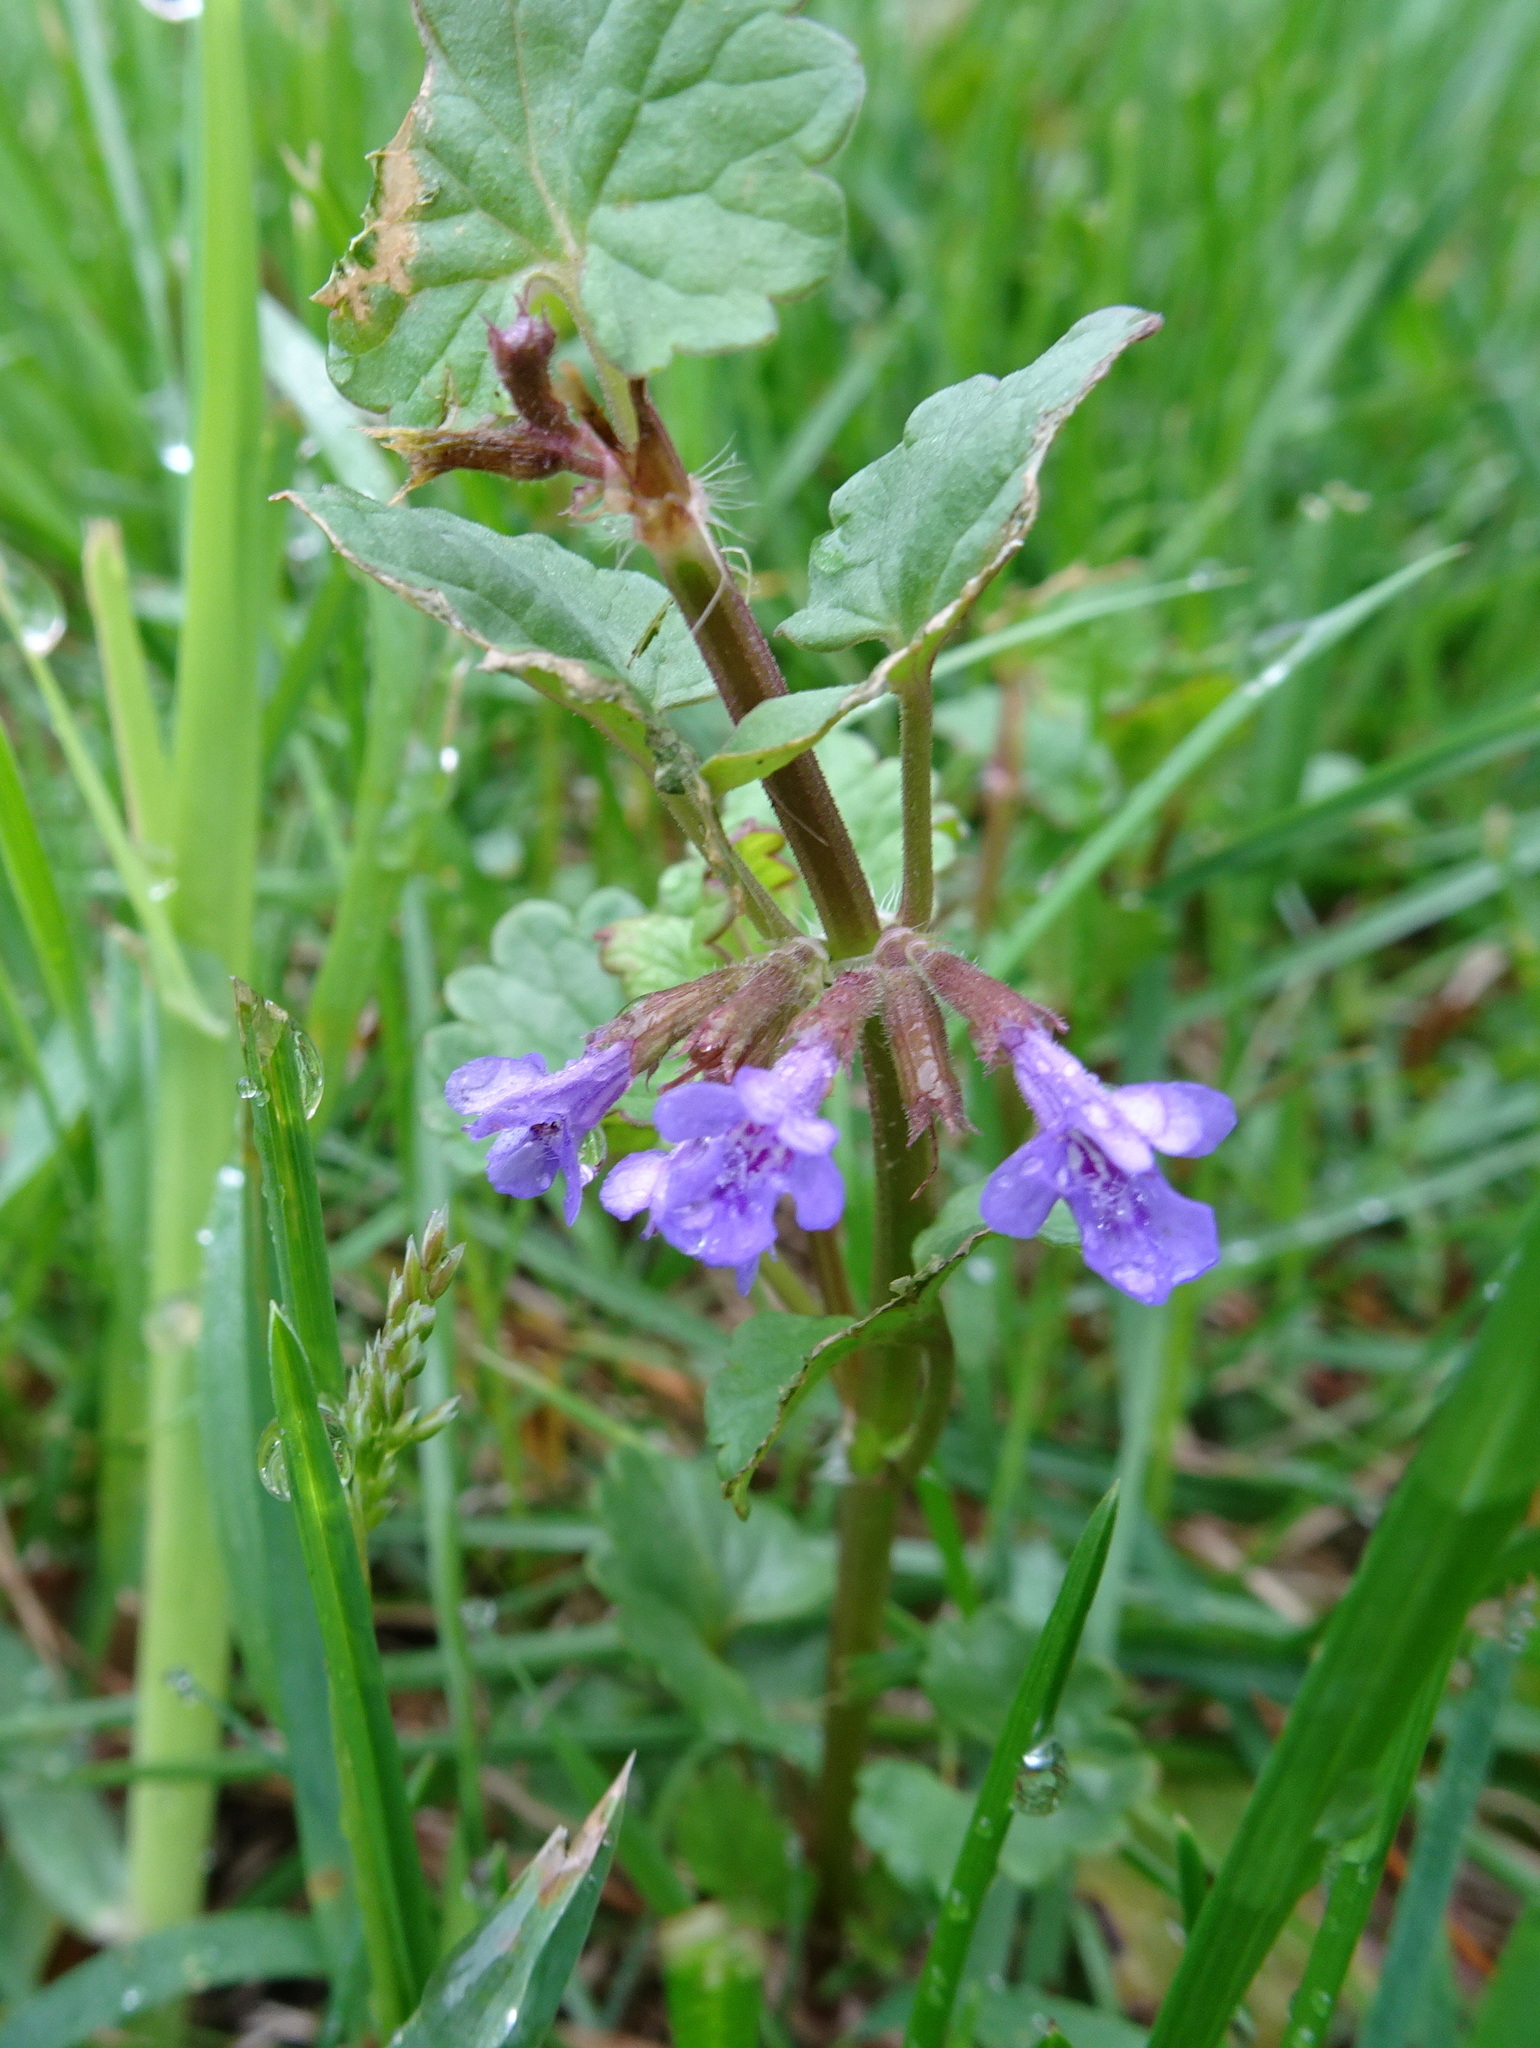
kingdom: Plantae
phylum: Tracheophyta
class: Magnoliopsida
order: Lamiales
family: Lamiaceae
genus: Glechoma
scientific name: Glechoma hederacea
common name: Ground ivy
